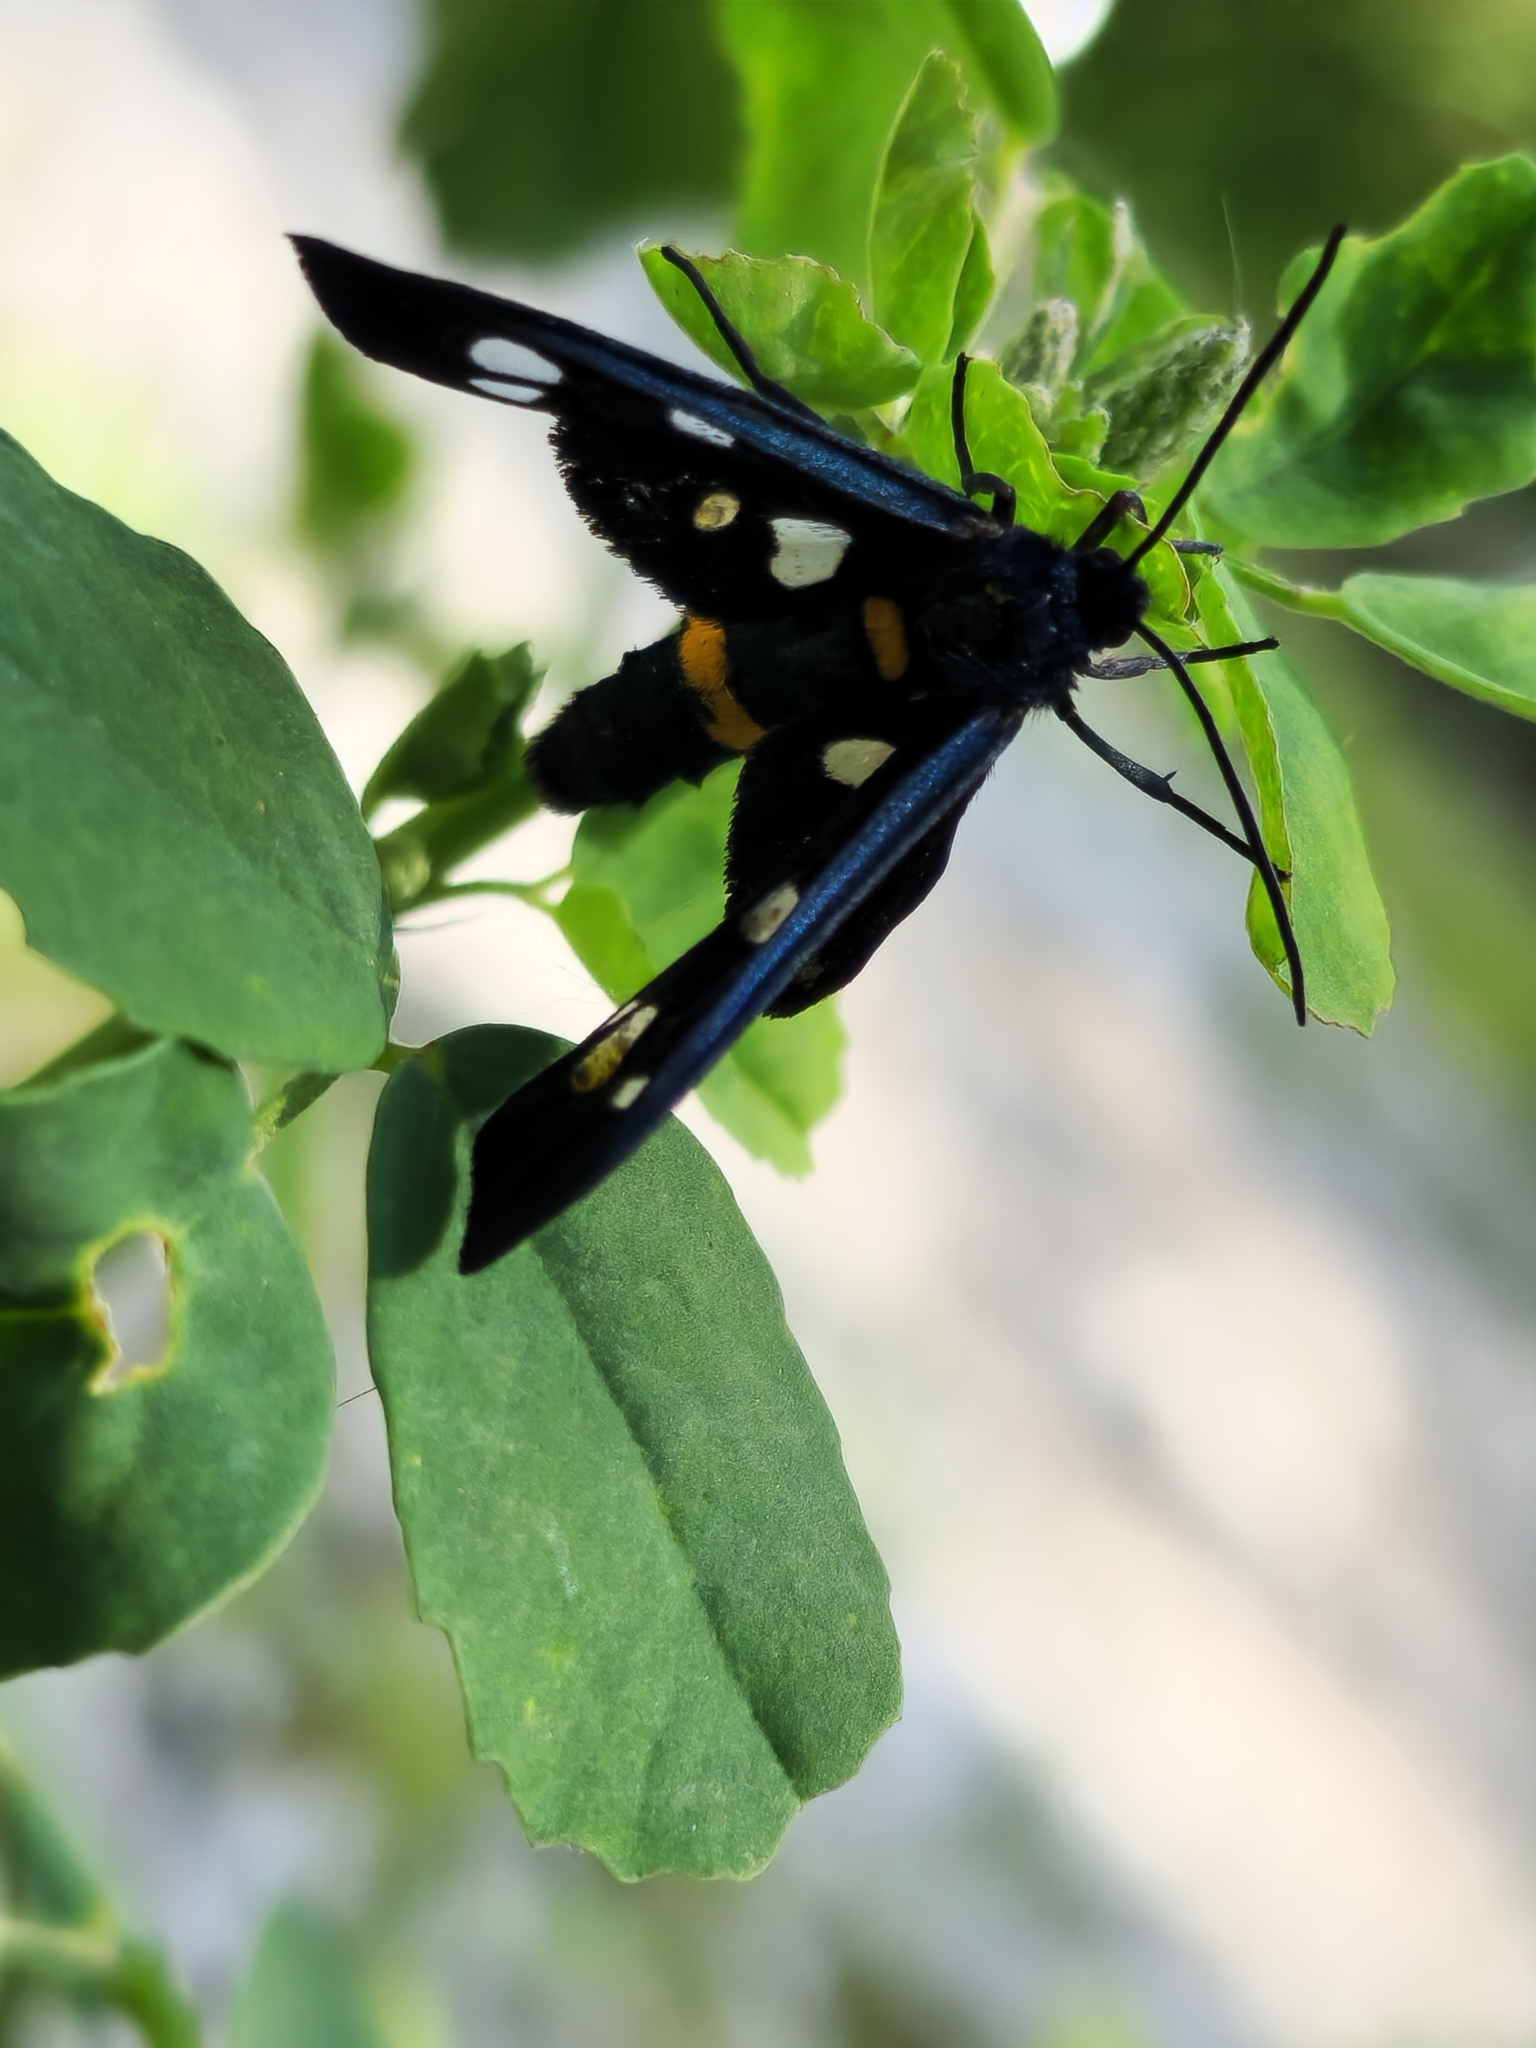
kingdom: Animalia
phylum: Arthropoda
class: Insecta
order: Lepidoptera
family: Erebidae
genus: Amata
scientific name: Amata nigricornis
